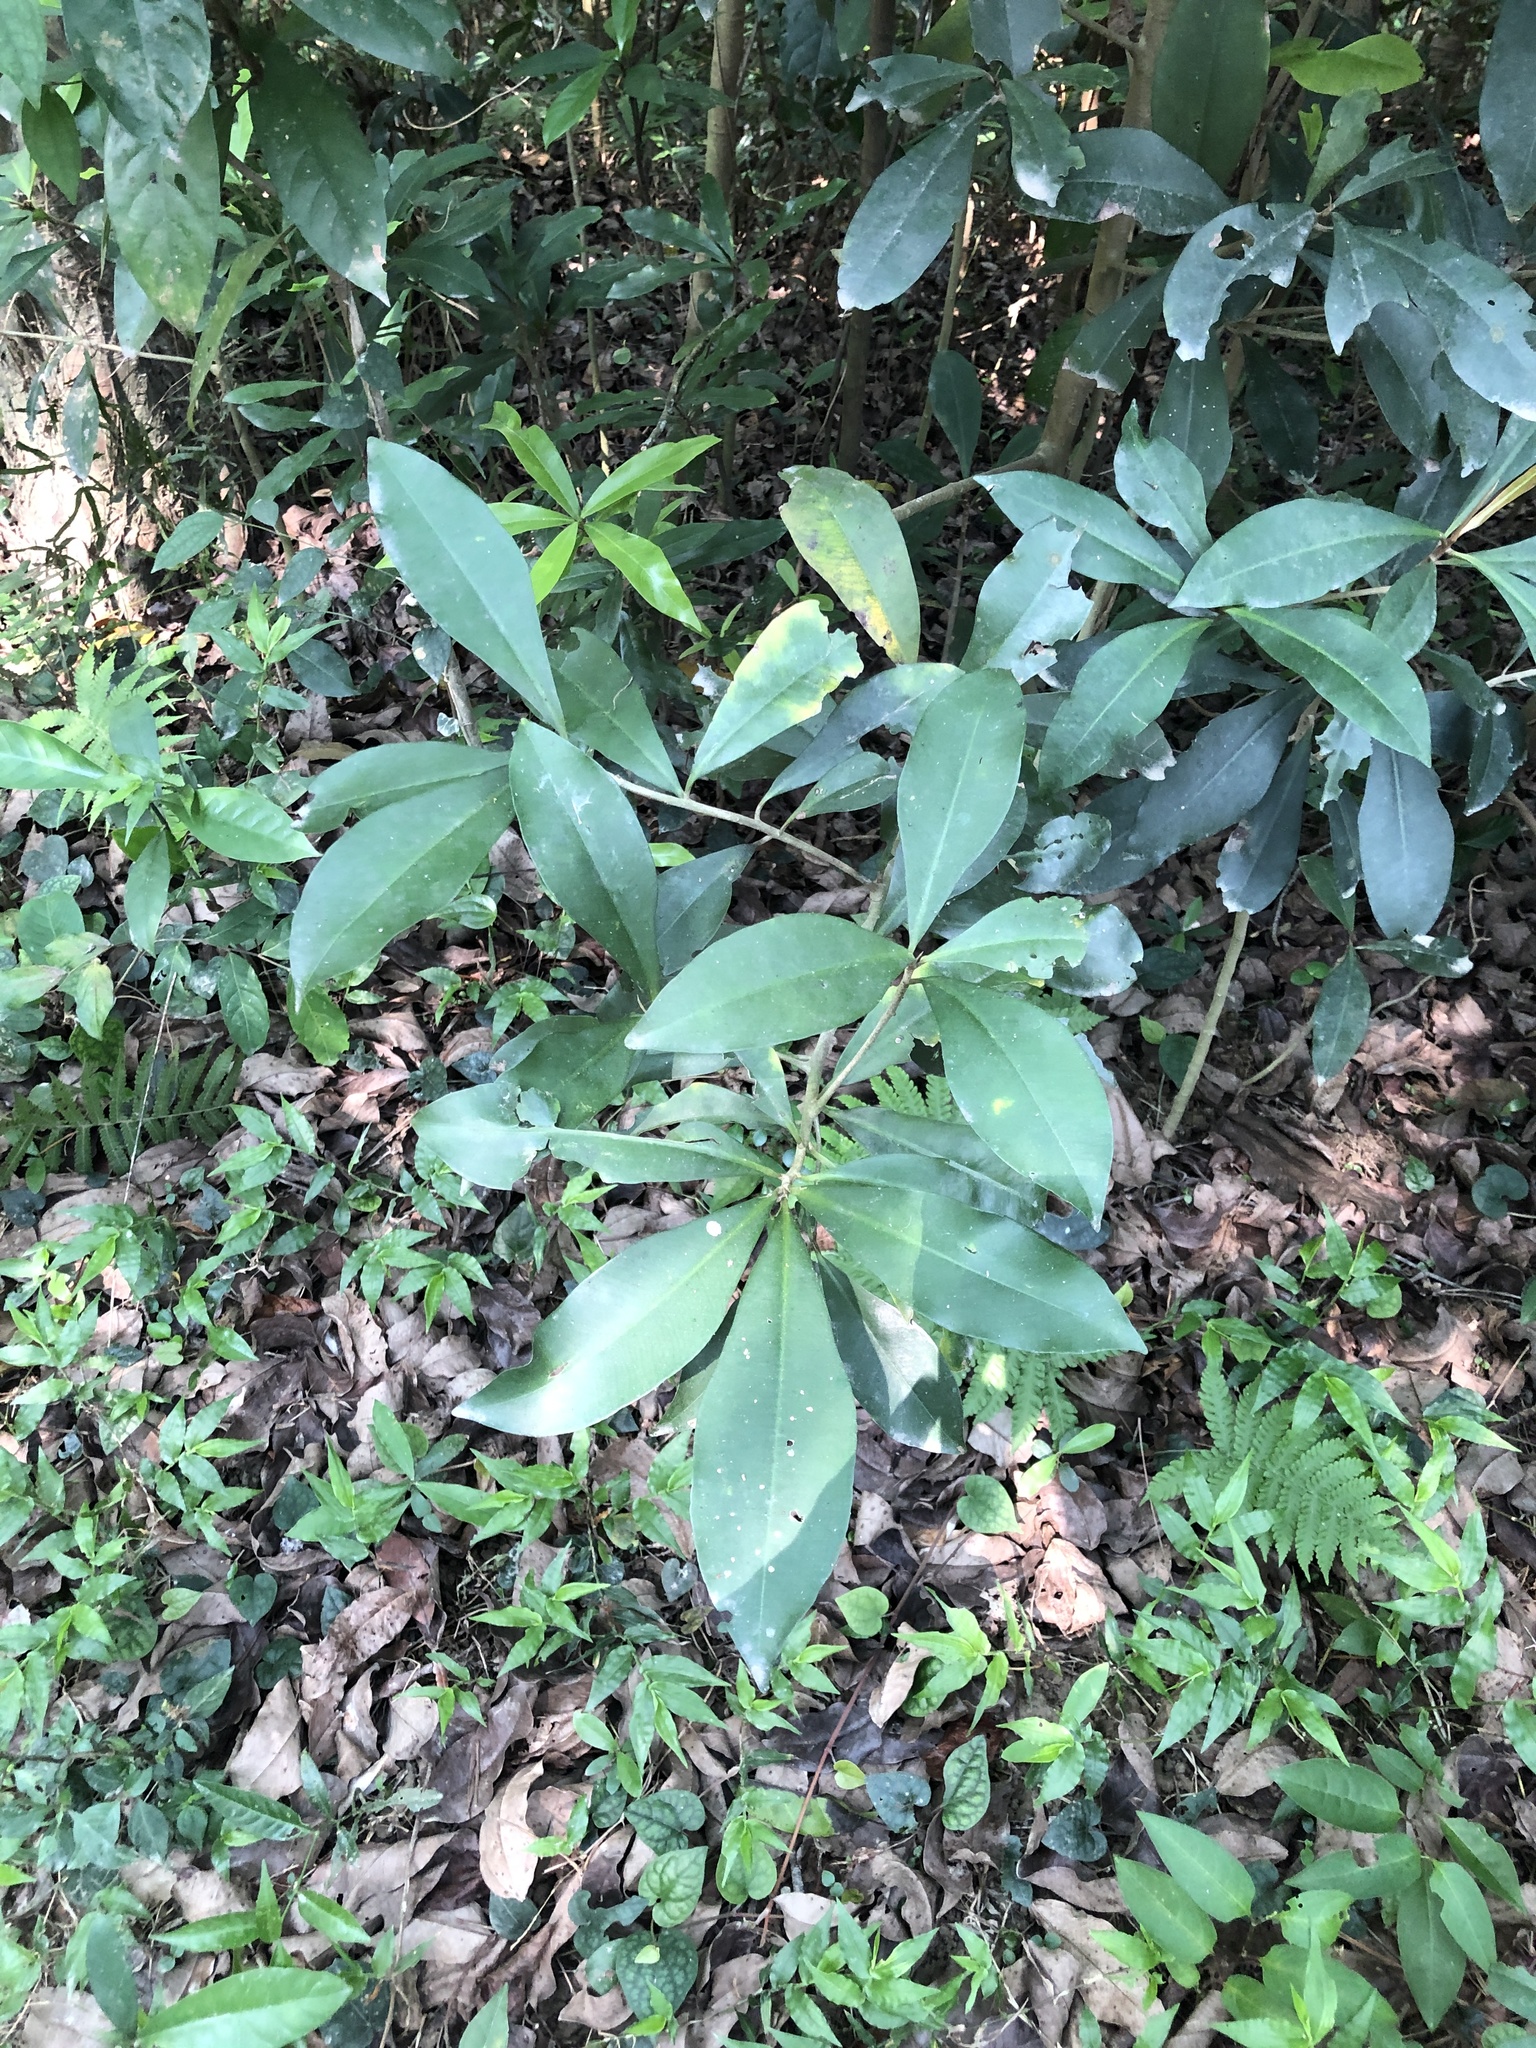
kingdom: Plantae
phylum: Tracheophyta
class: Magnoliopsida
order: Ericales
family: Primulaceae
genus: Ardisia
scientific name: Ardisia sieboldii
